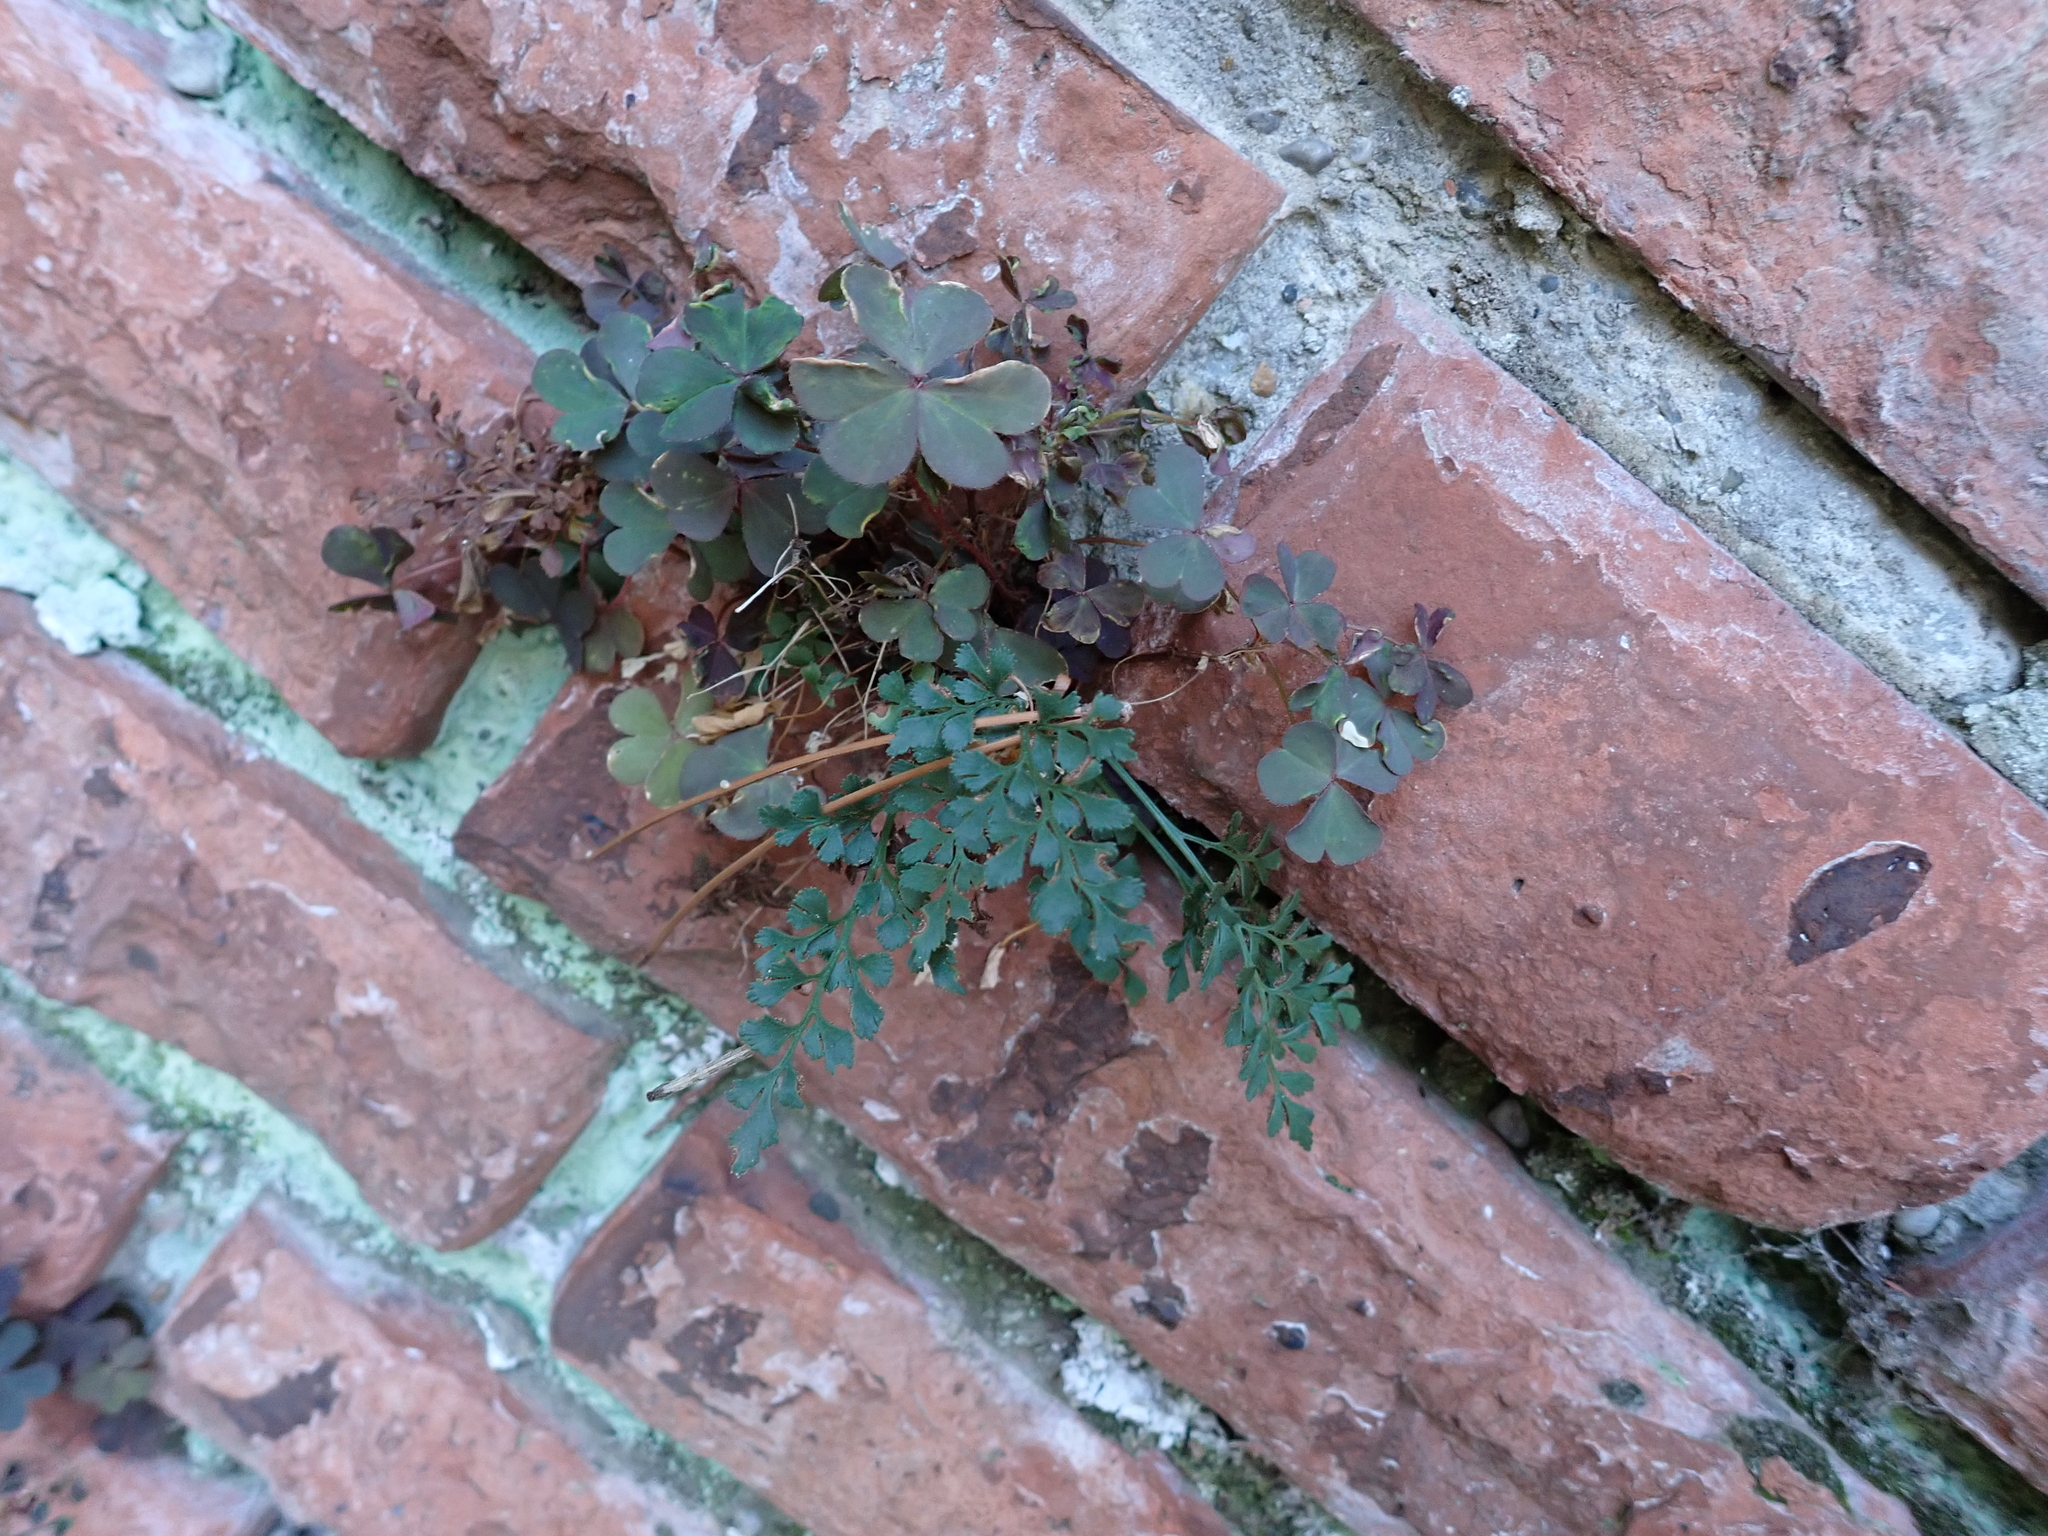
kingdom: Plantae
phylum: Tracheophyta
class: Polypodiopsida
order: Polypodiales
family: Aspleniaceae
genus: Asplenium
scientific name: Asplenium ruta-muraria
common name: Wall-rue
